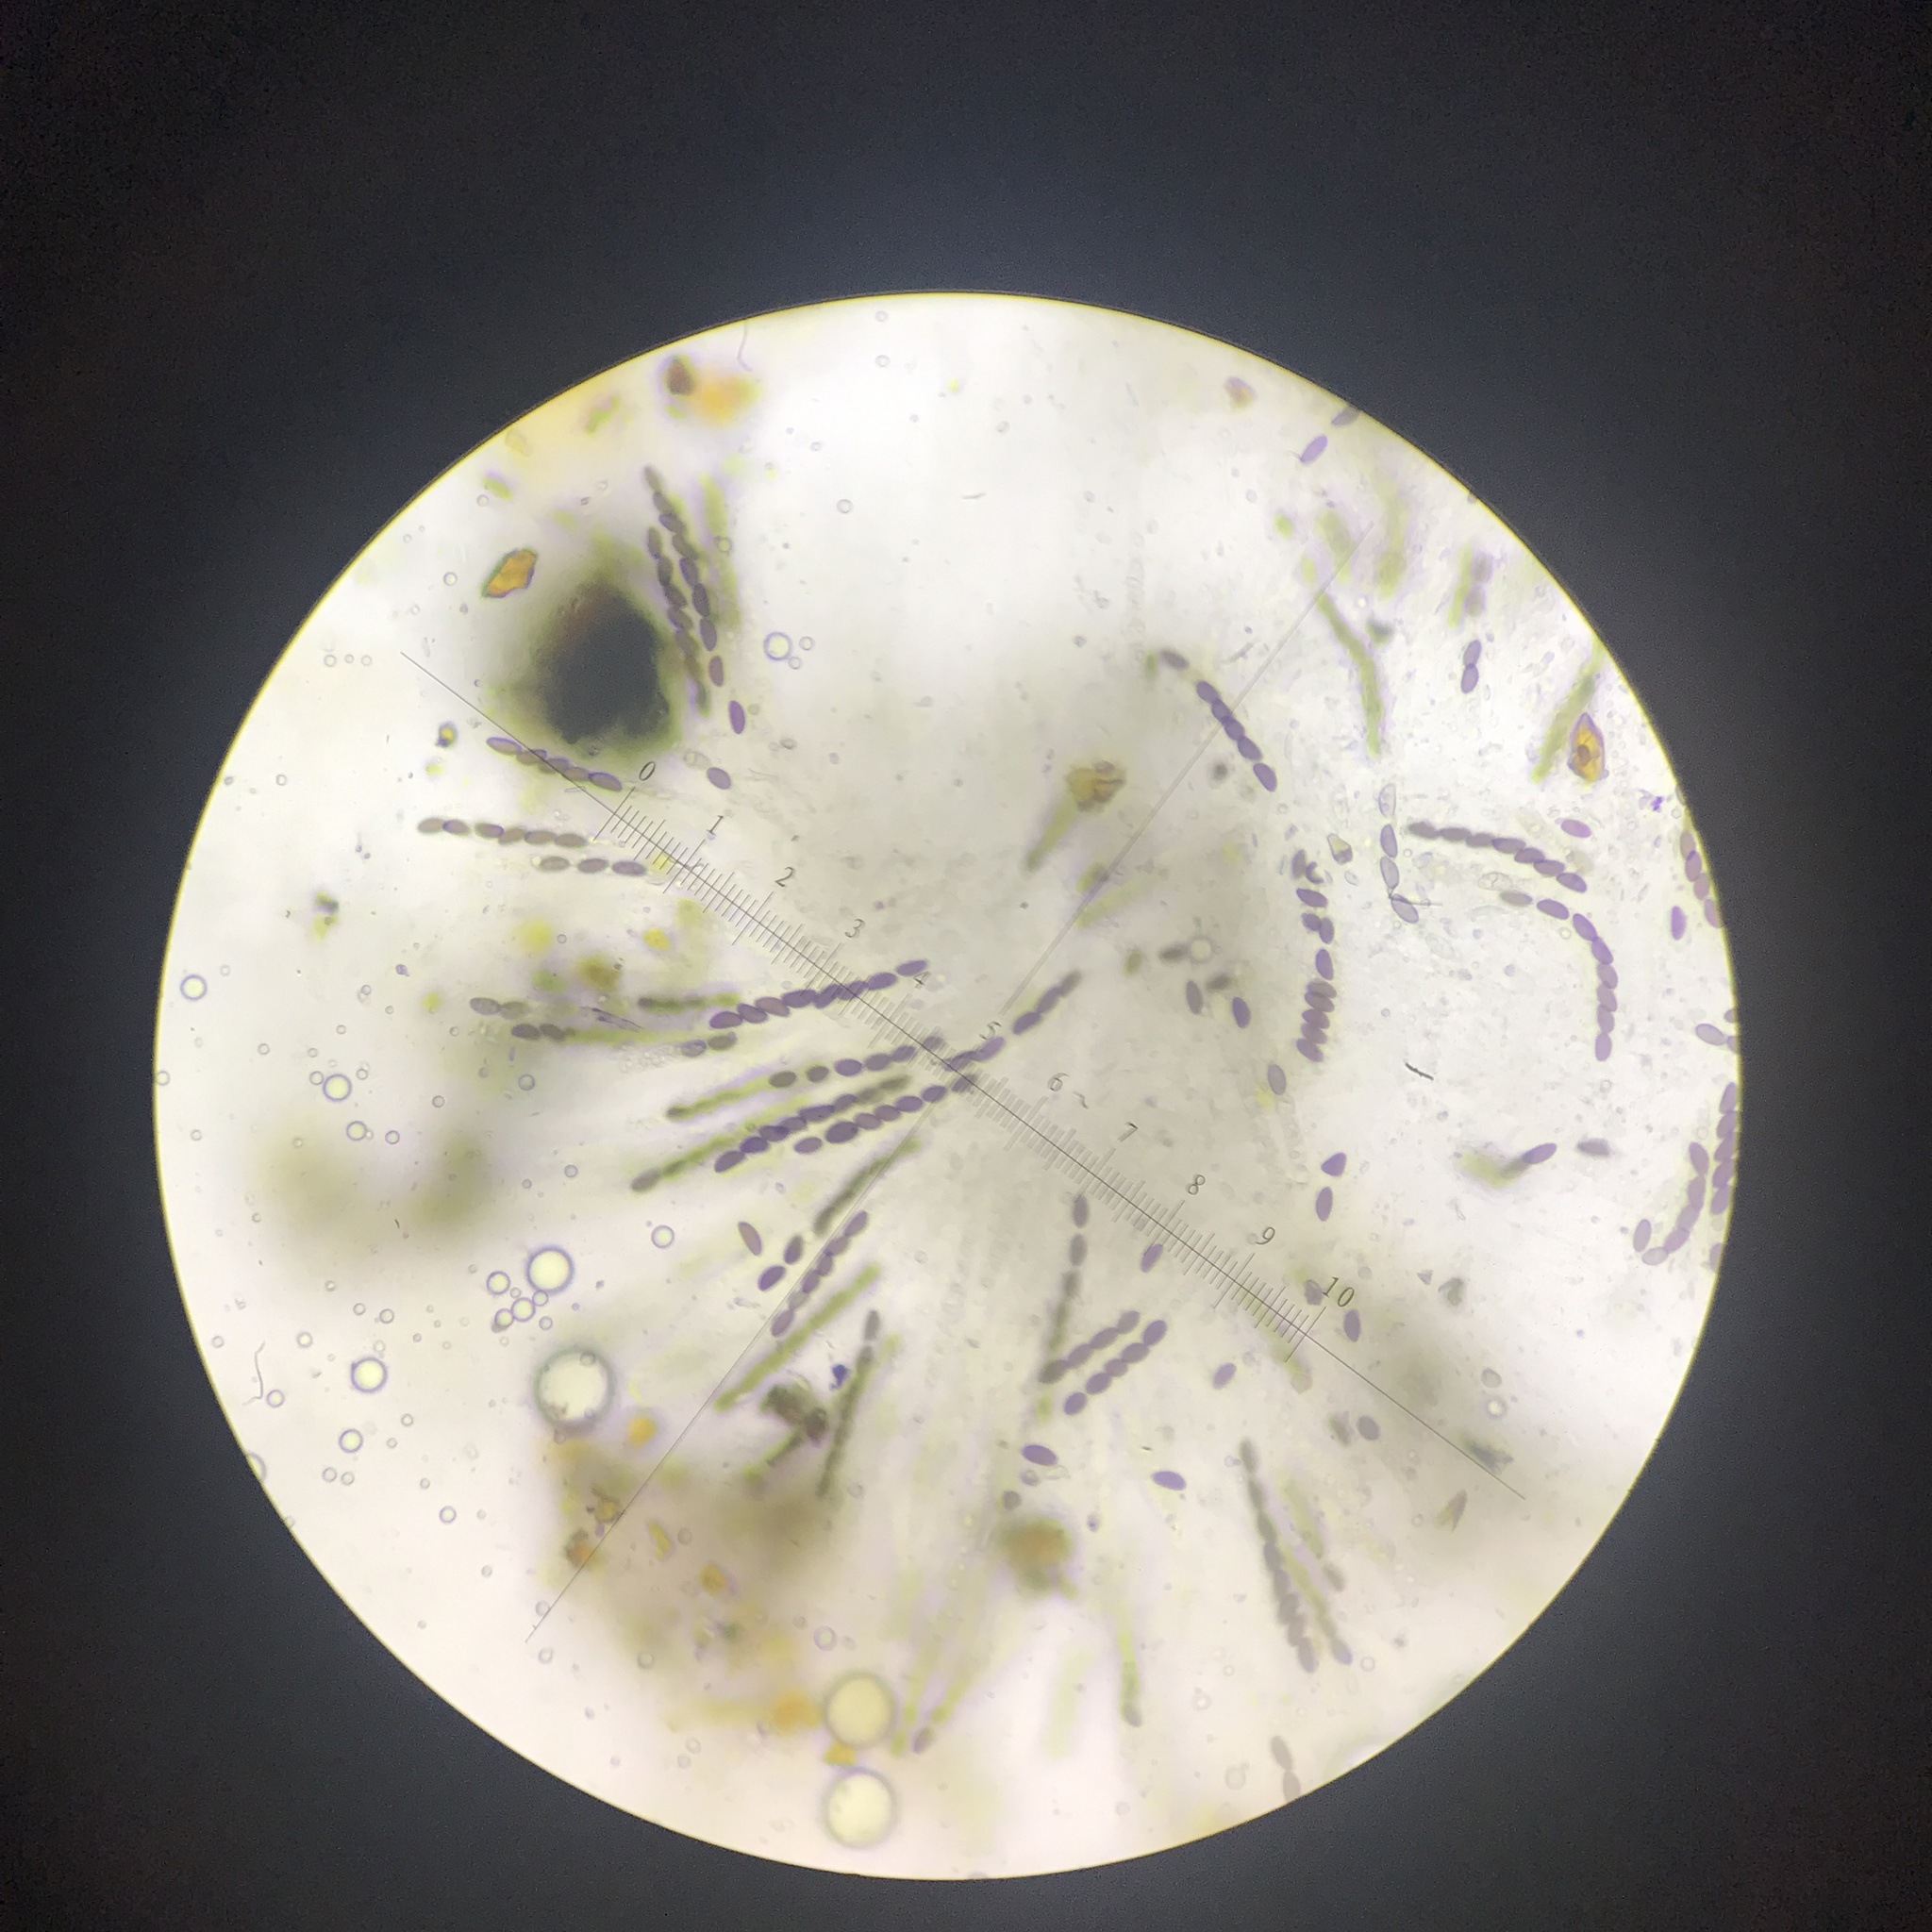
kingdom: Fungi
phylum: Ascomycota
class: Sordariomycetes
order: Xylariales
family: Hypoxylaceae
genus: Hypoxylon
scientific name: Hypoxylon rubiginosum
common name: Rusty woodwart
